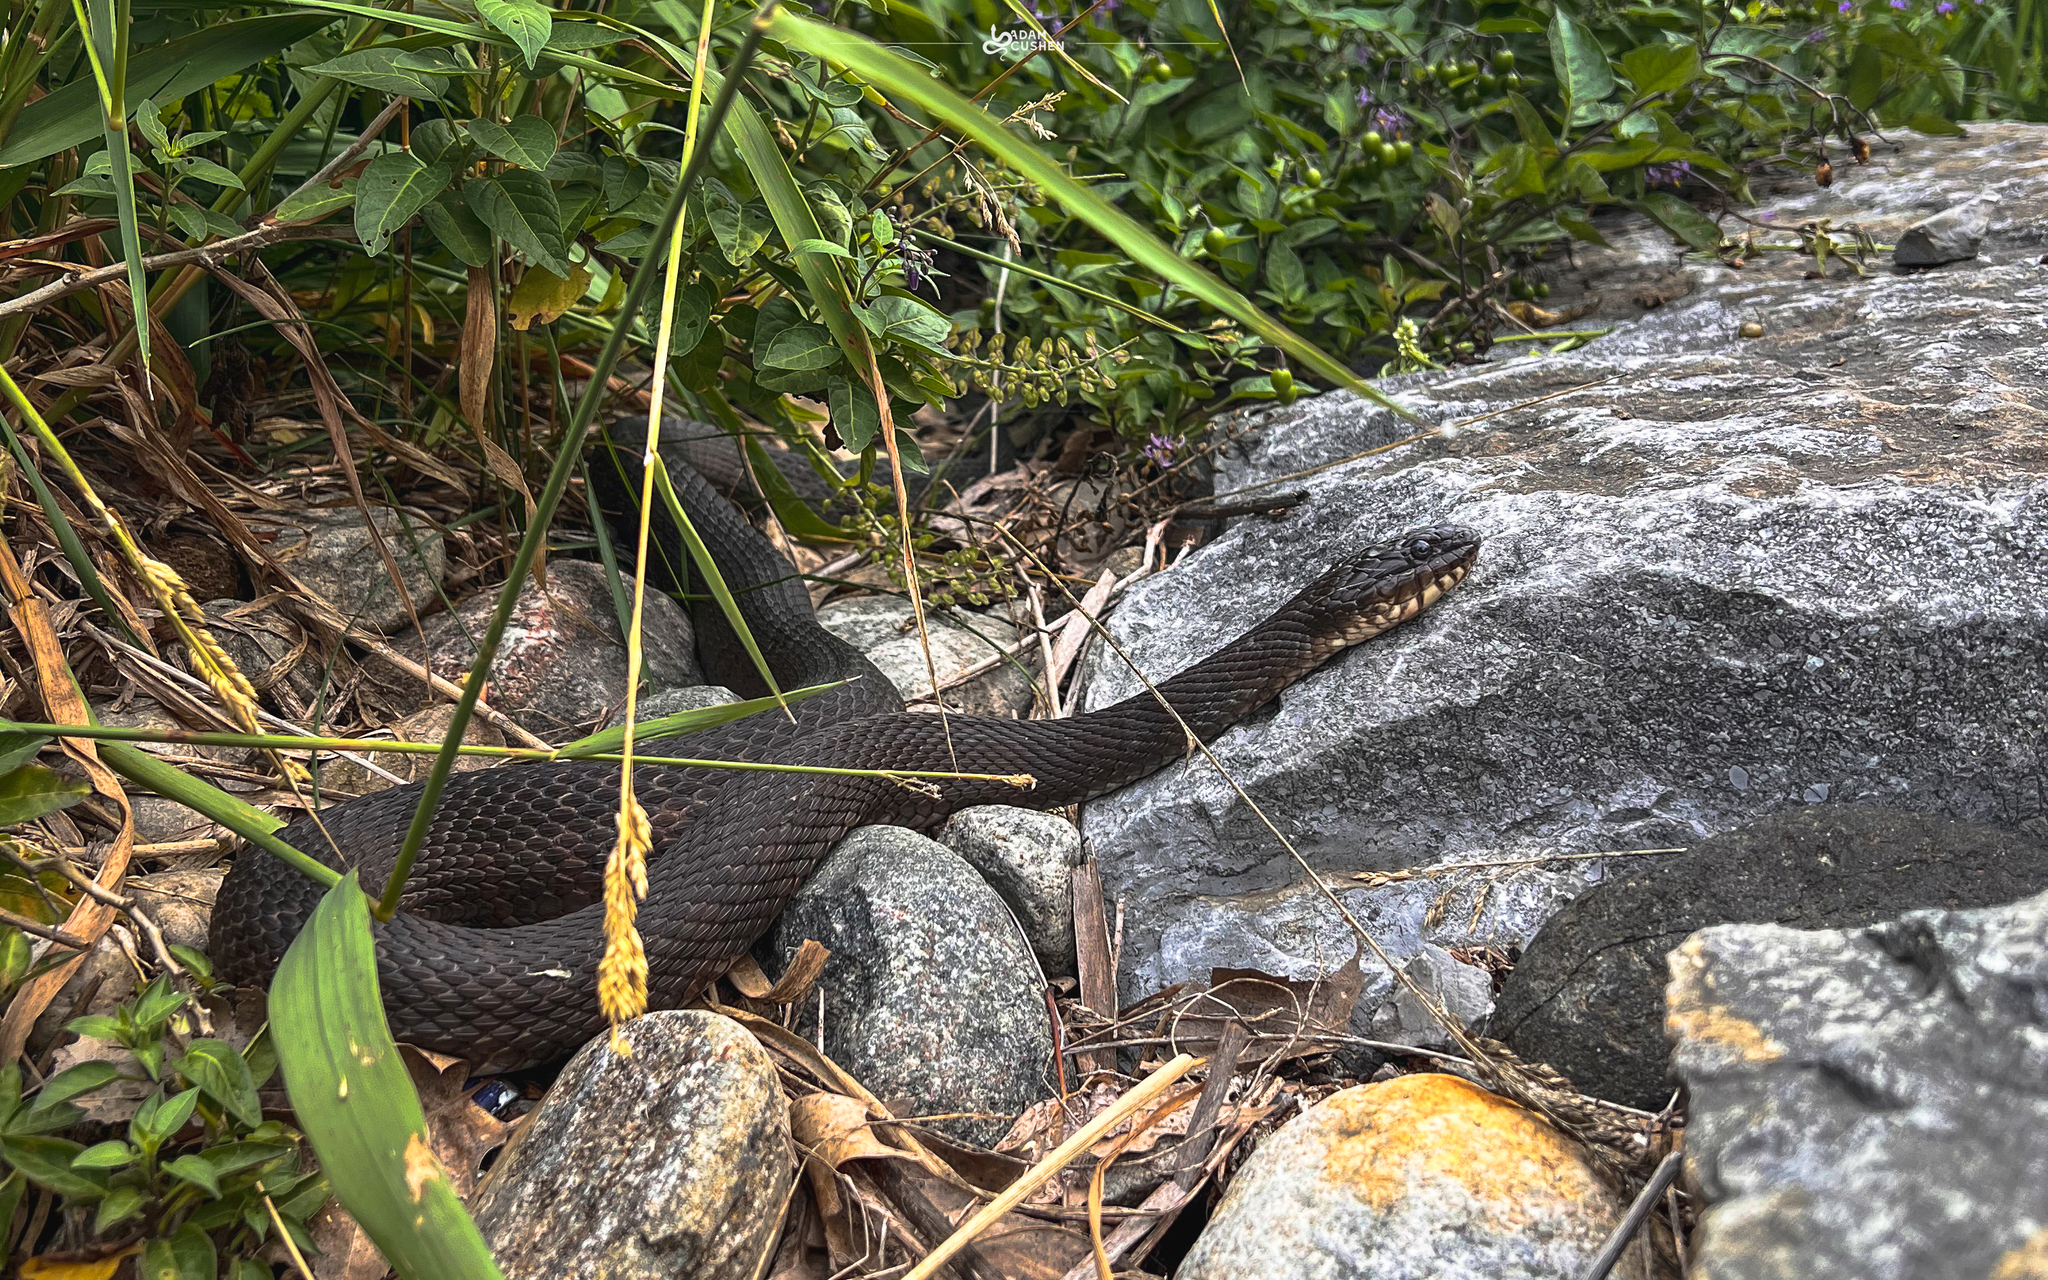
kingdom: Animalia
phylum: Chordata
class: Squamata
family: Colubridae
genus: Nerodia
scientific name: Nerodia sipedon
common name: Northern water snake
